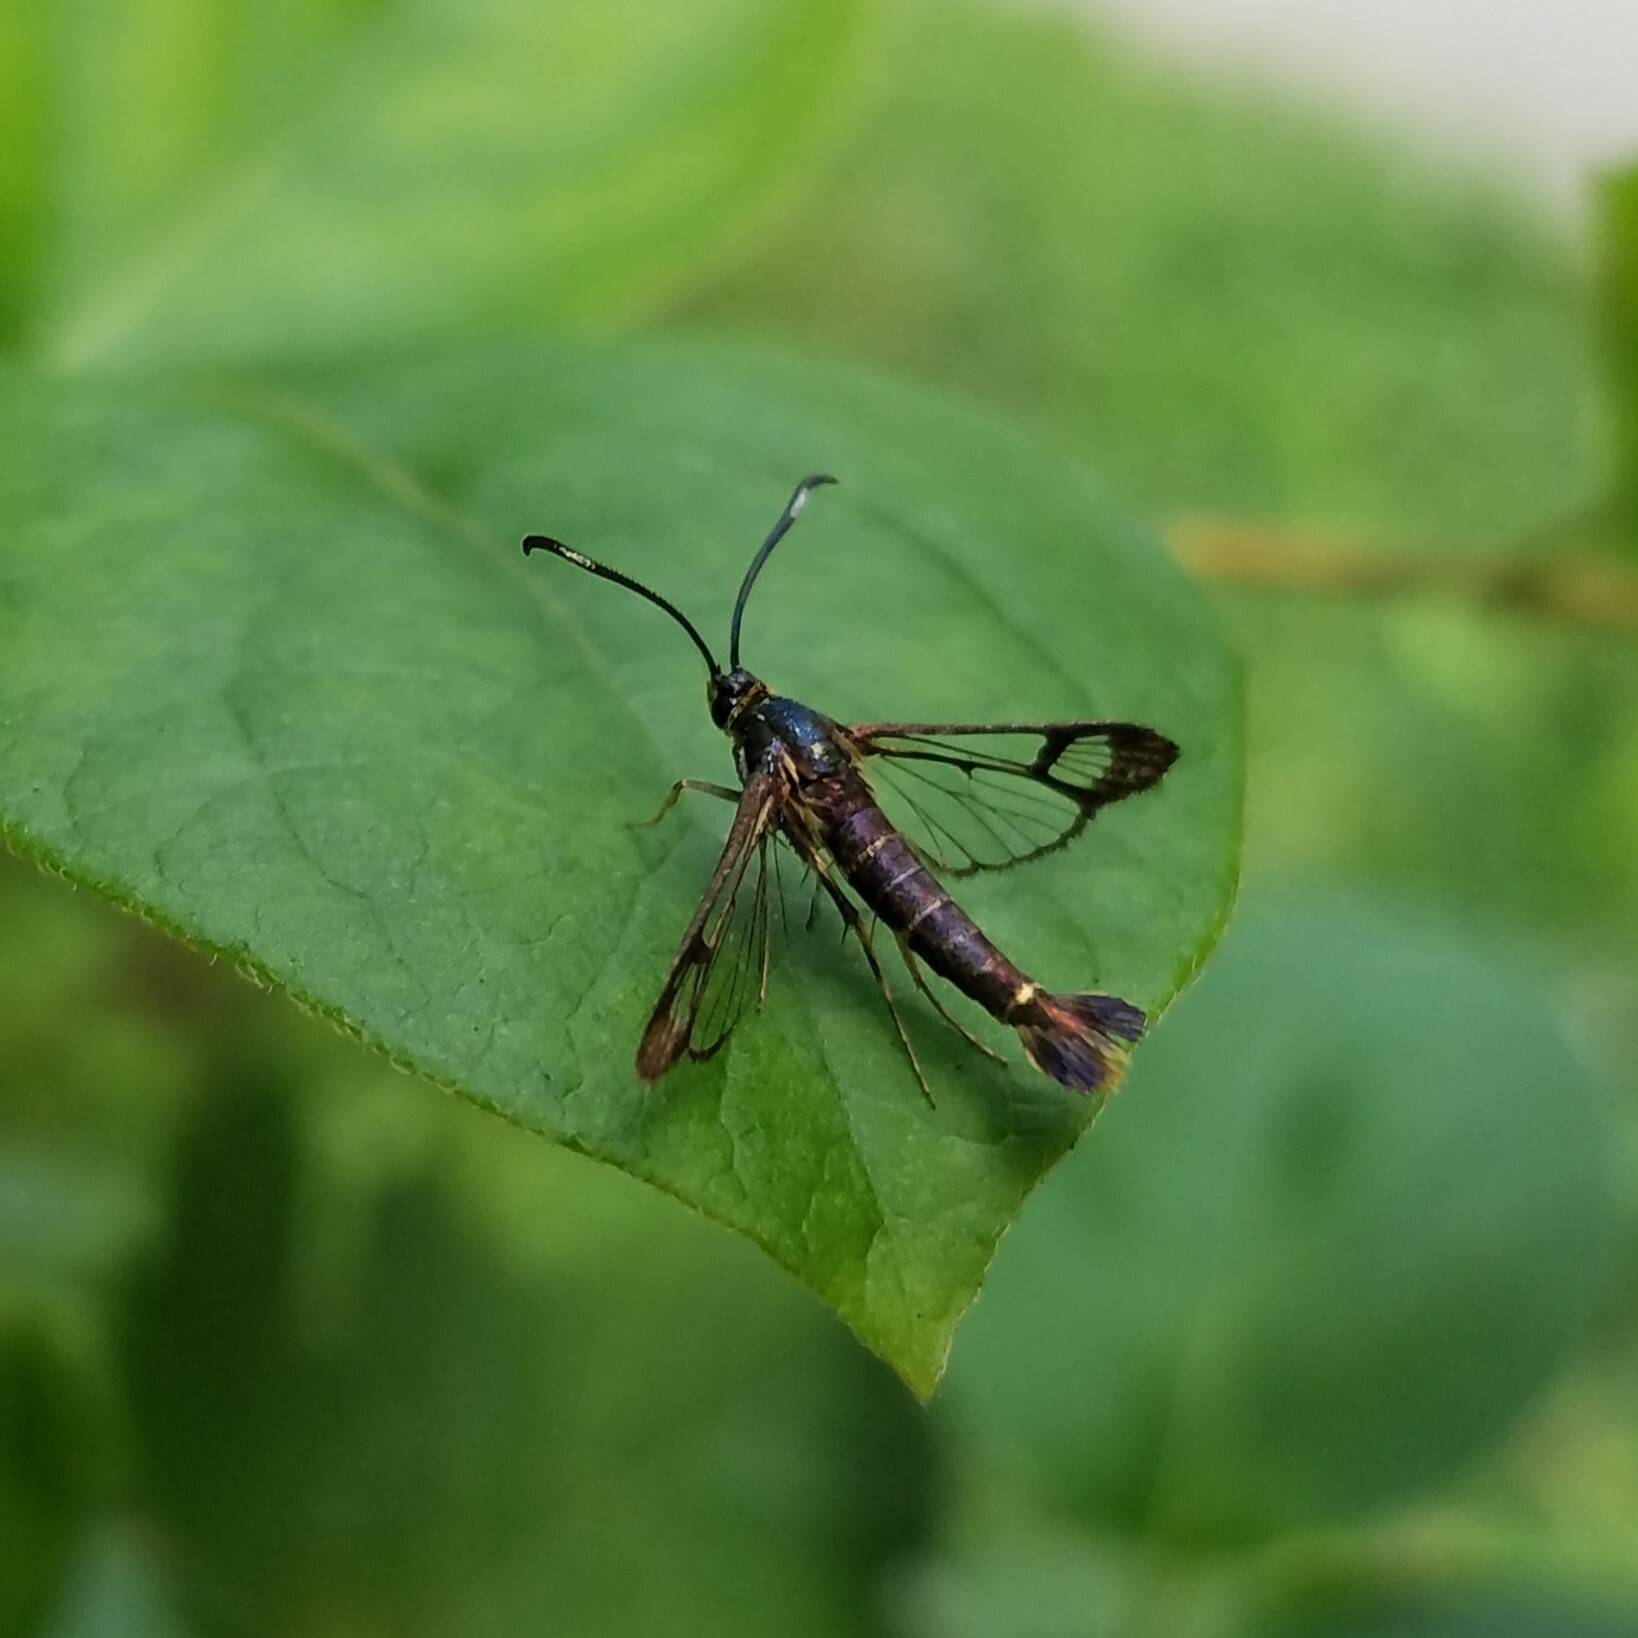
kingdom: Animalia
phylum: Arthropoda
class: Insecta
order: Lepidoptera
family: Sesiidae
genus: Carmenta
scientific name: Carmenta ithacae
